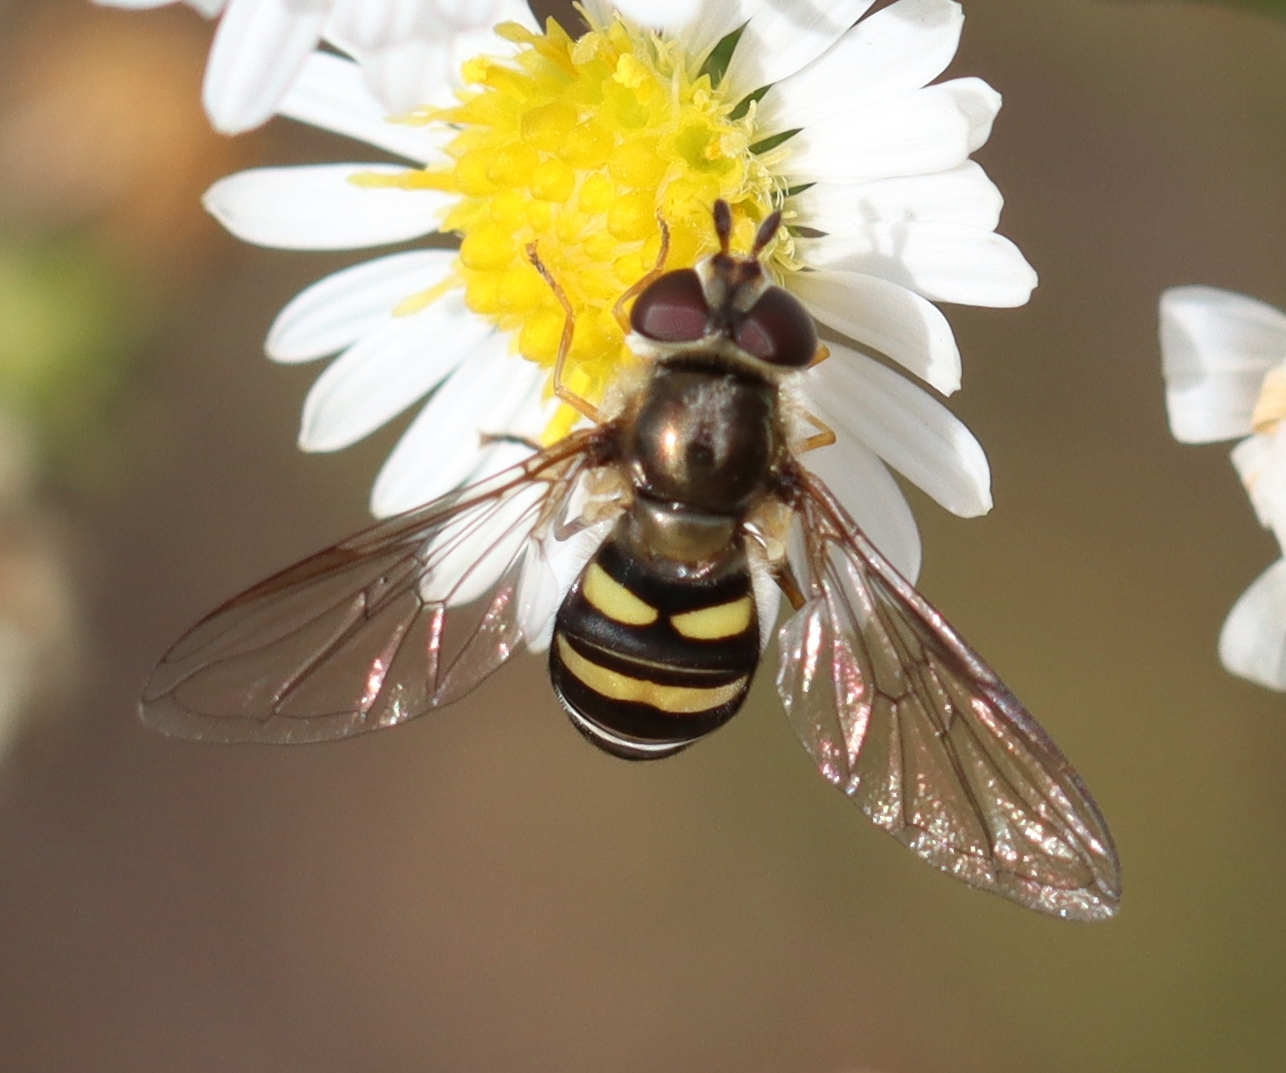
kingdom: Animalia
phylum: Arthropoda
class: Insecta
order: Diptera
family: Syrphidae
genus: Eupeodes
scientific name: Eupeodes
